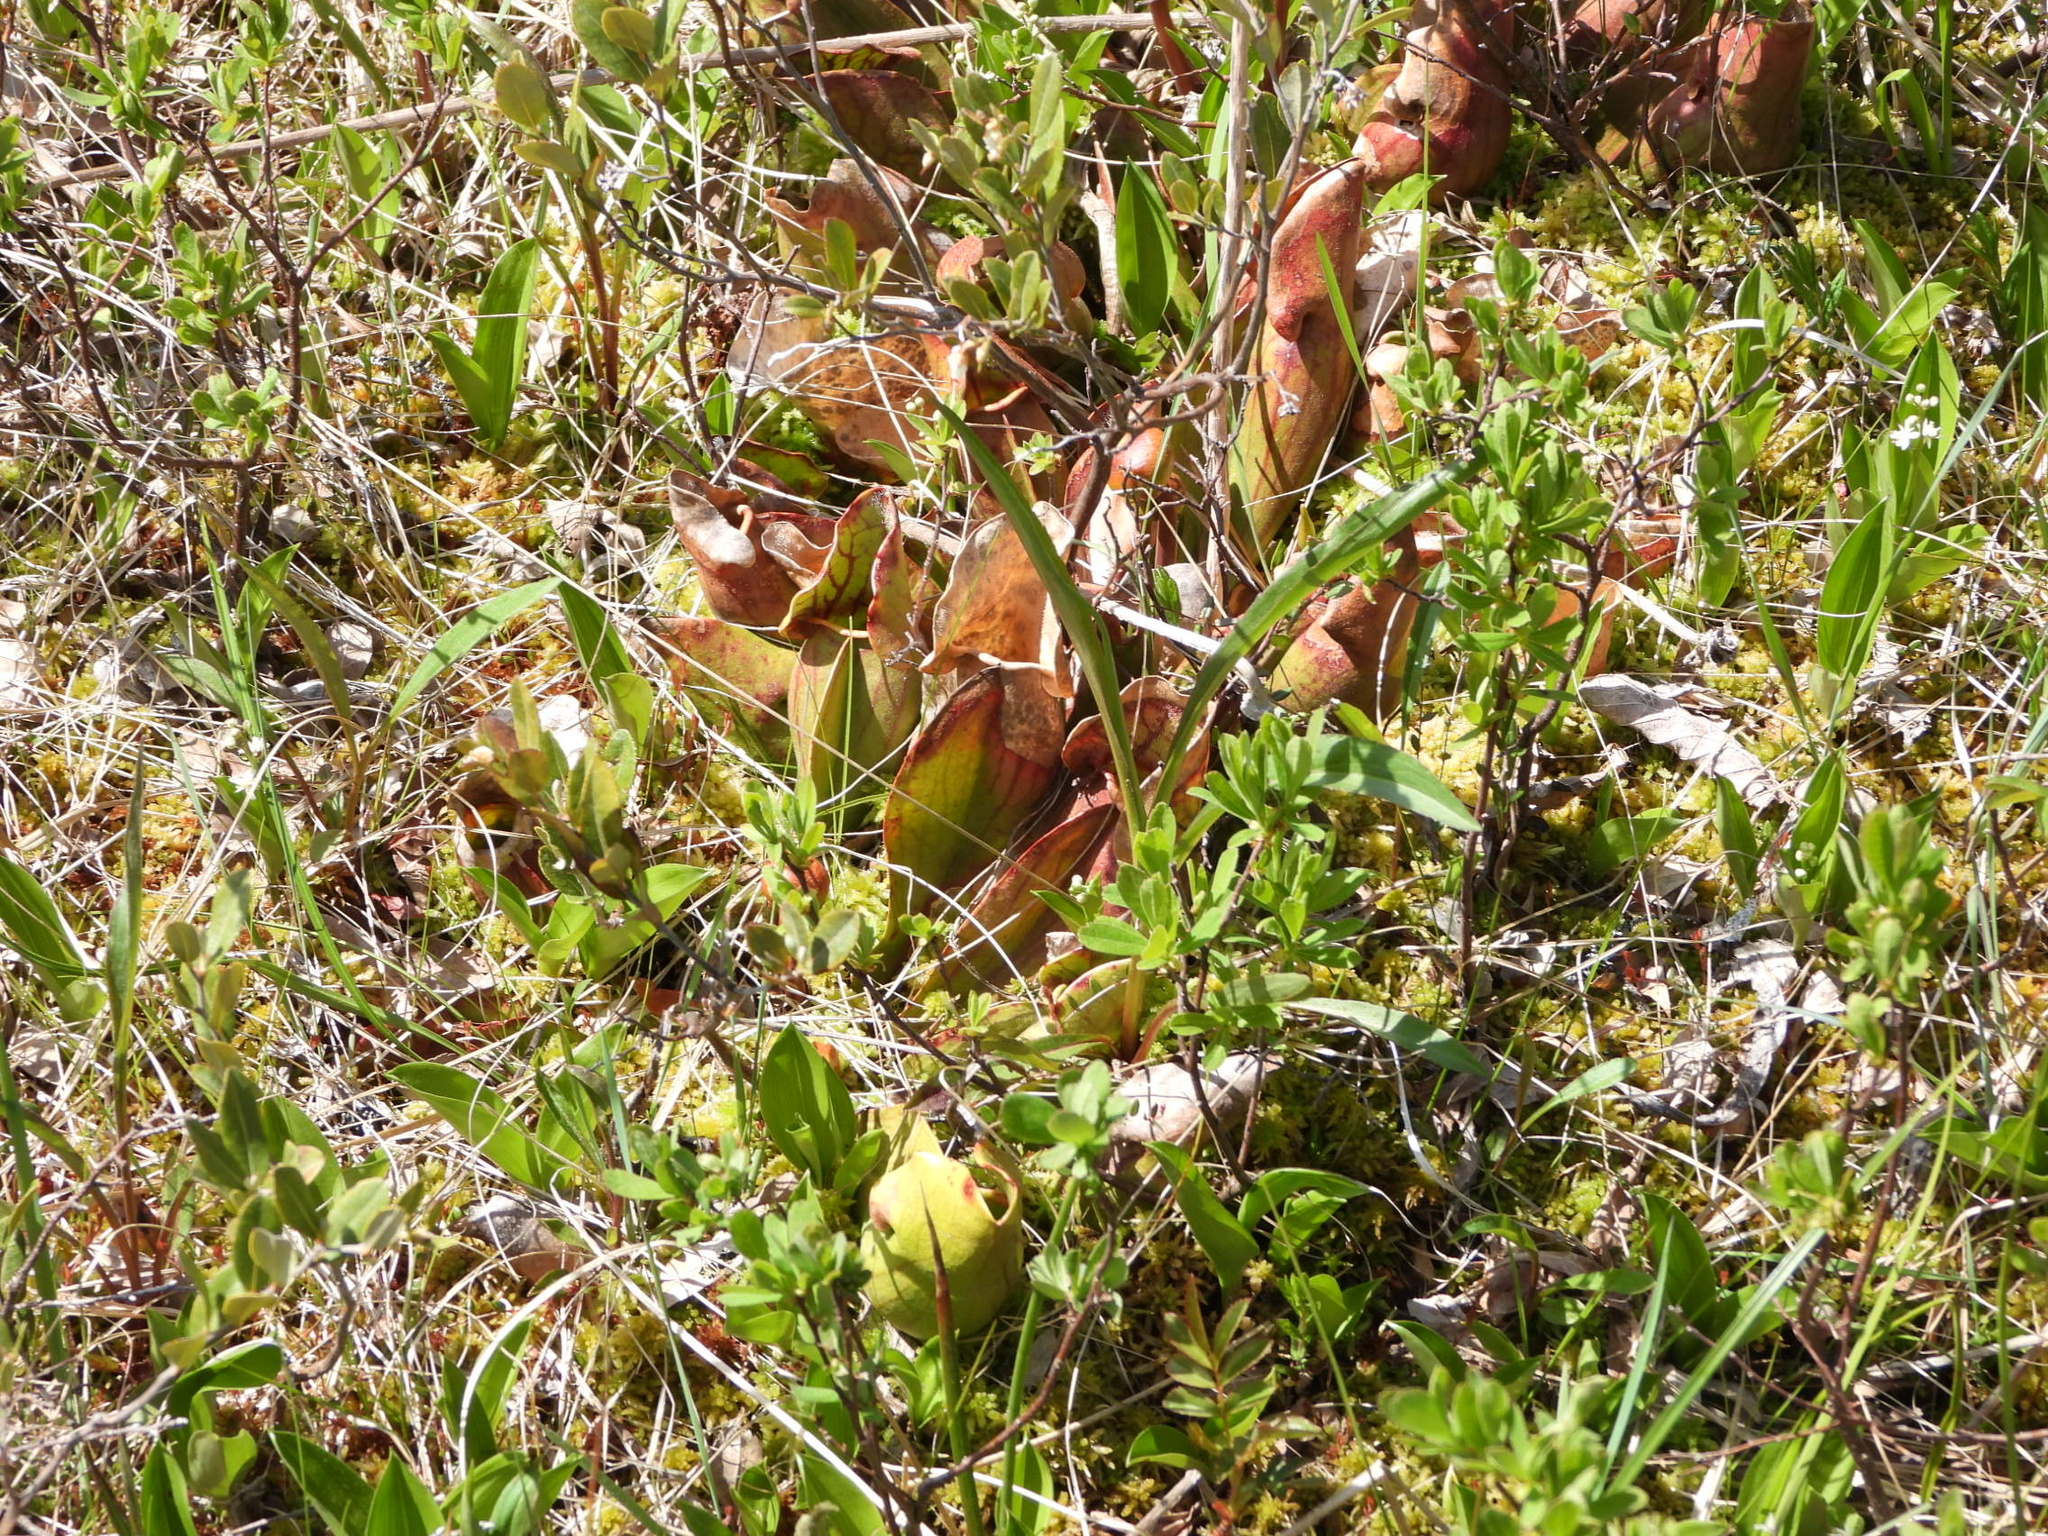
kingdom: Plantae
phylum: Tracheophyta
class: Magnoliopsida
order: Ericales
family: Sarraceniaceae
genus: Sarracenia
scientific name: Sarracenia purpurea
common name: Pitcherplant
